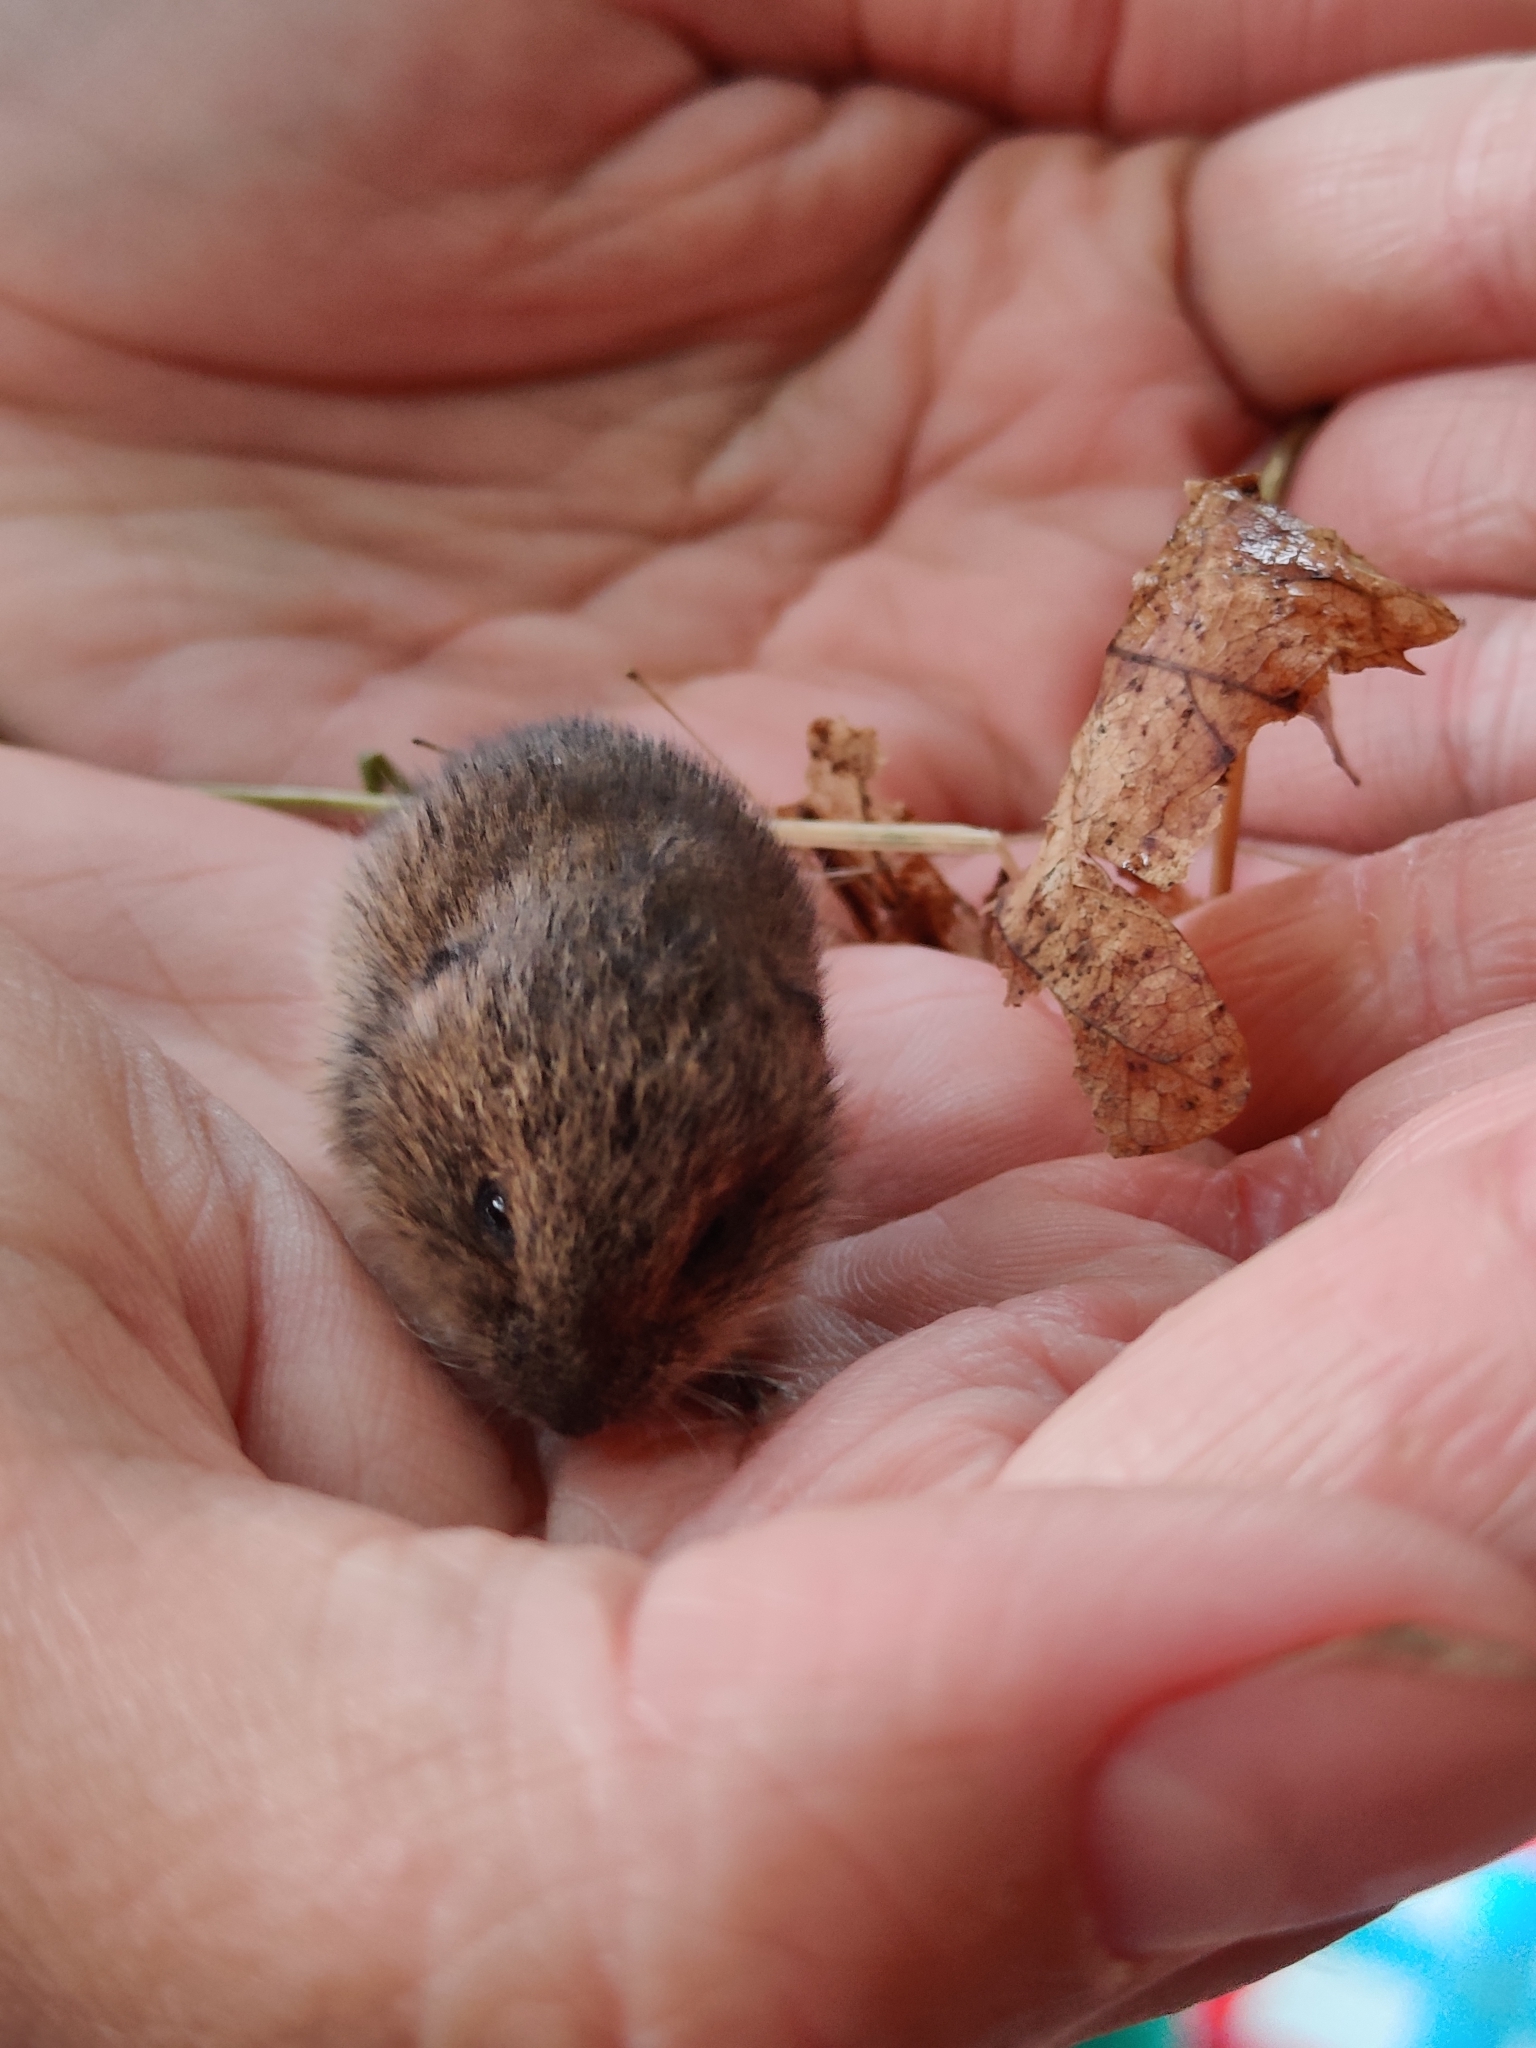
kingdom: Animalia
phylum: Chordata
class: Mammalia
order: Rodentia
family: Cricetidae
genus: Myodes
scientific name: Myodes glareolus
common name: Bank vole
